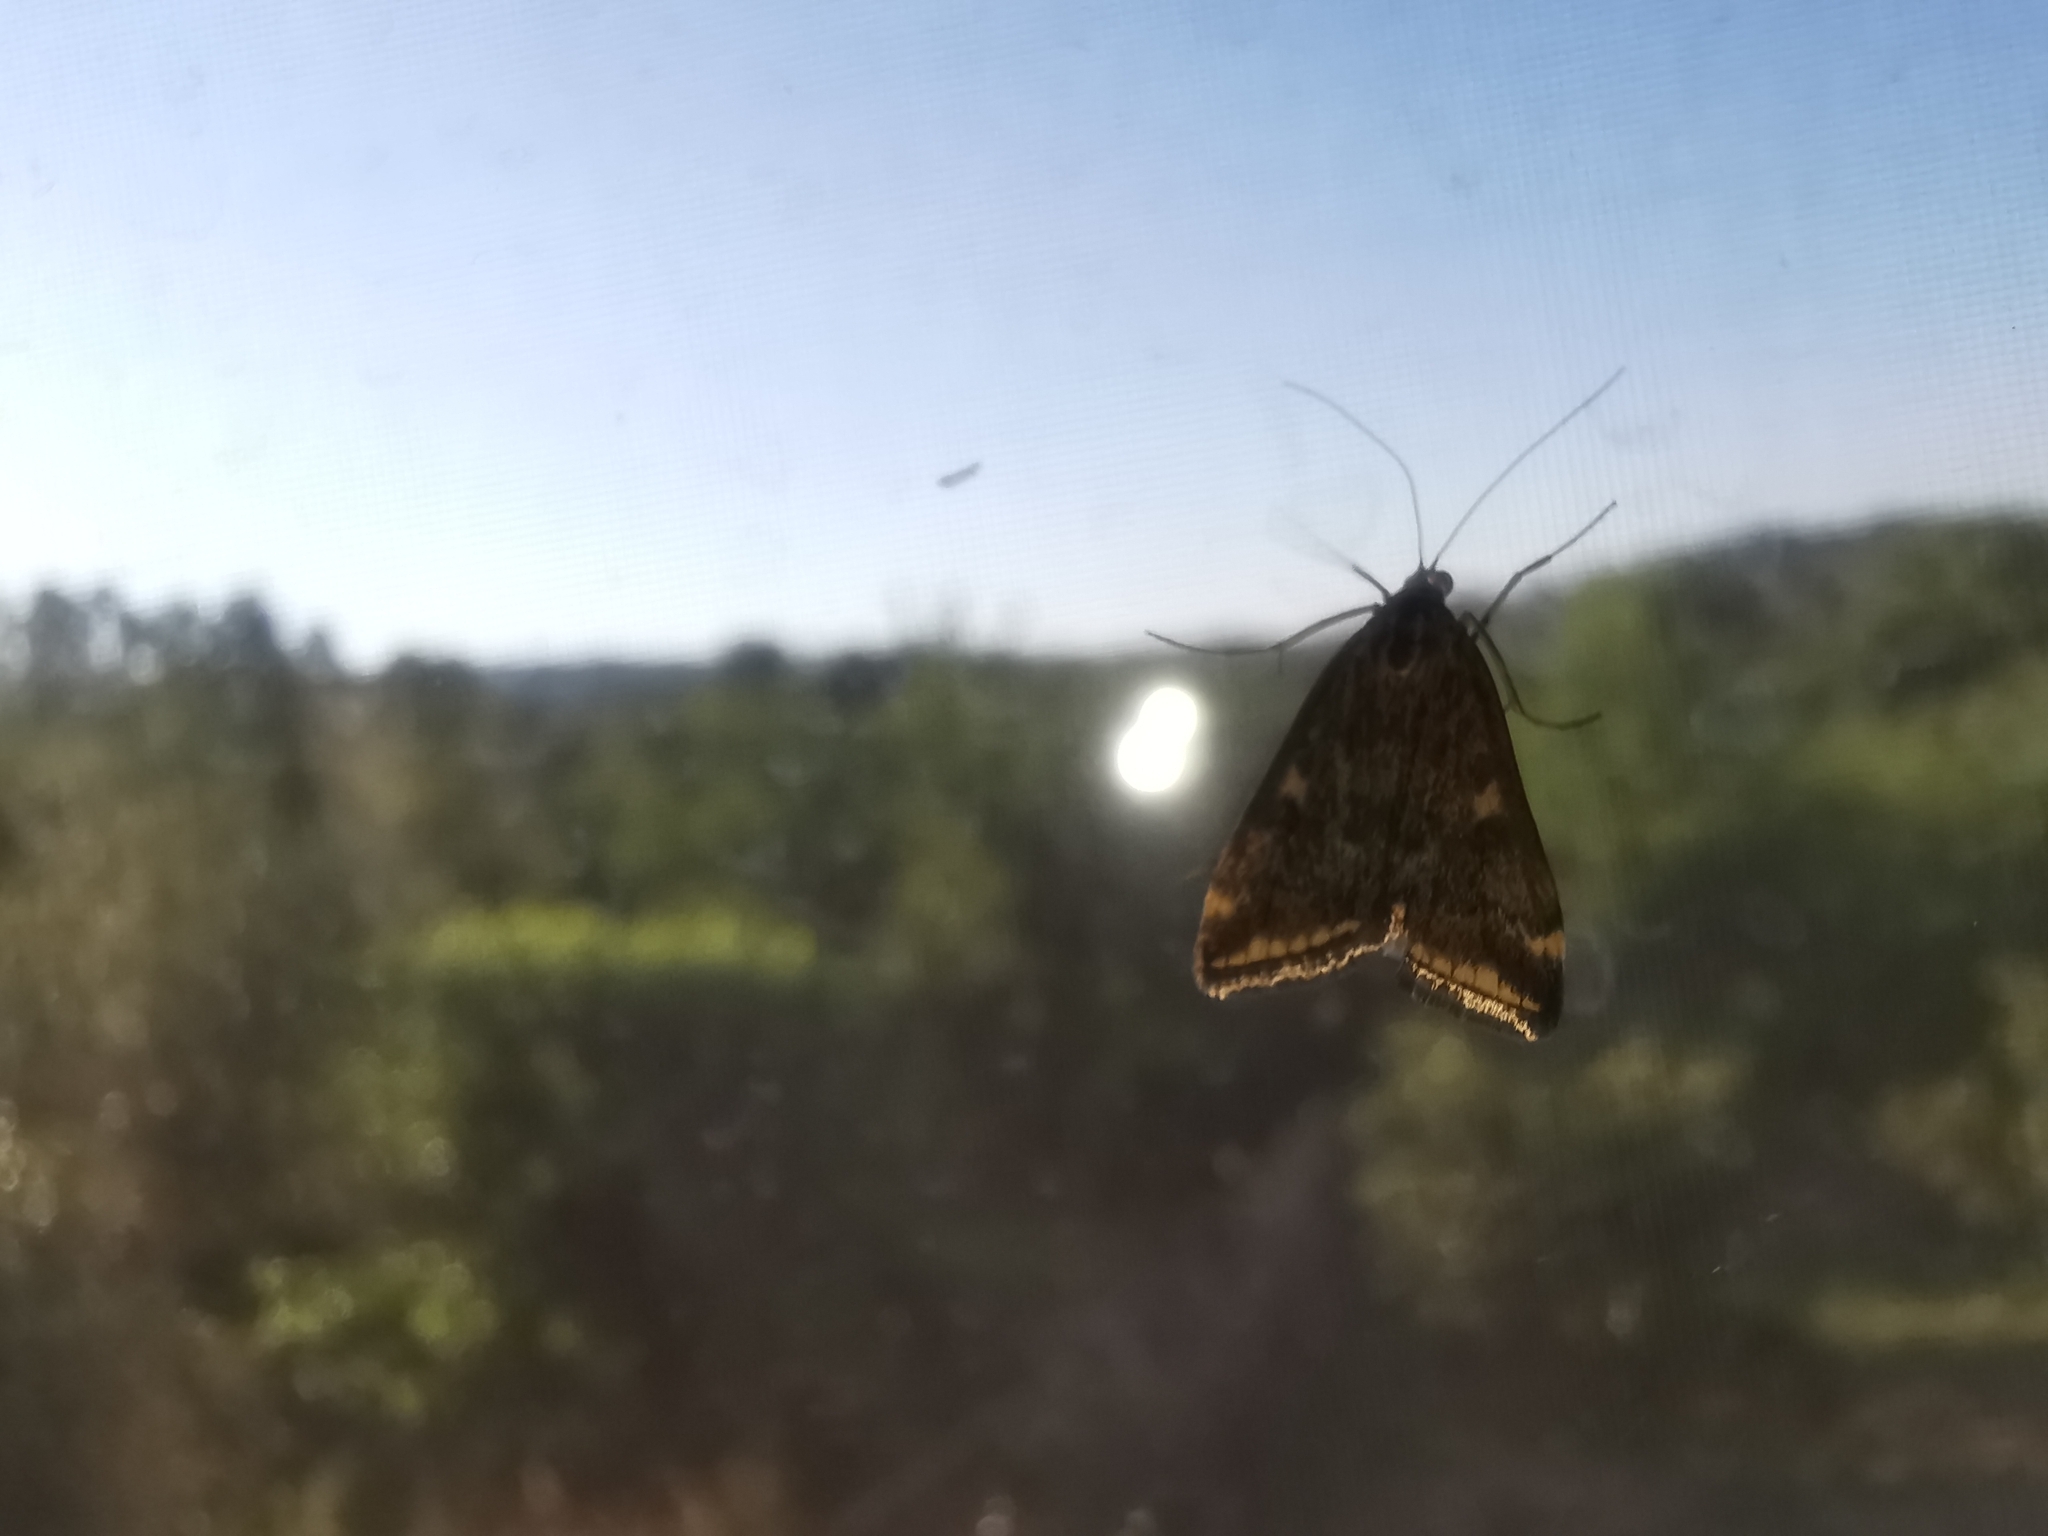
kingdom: Animalia
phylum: Arthropoda
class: Insecta
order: Lepidoptera
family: Crambidae
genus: Loxostege
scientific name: Loxostege sticticalis
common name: Crambid moth
